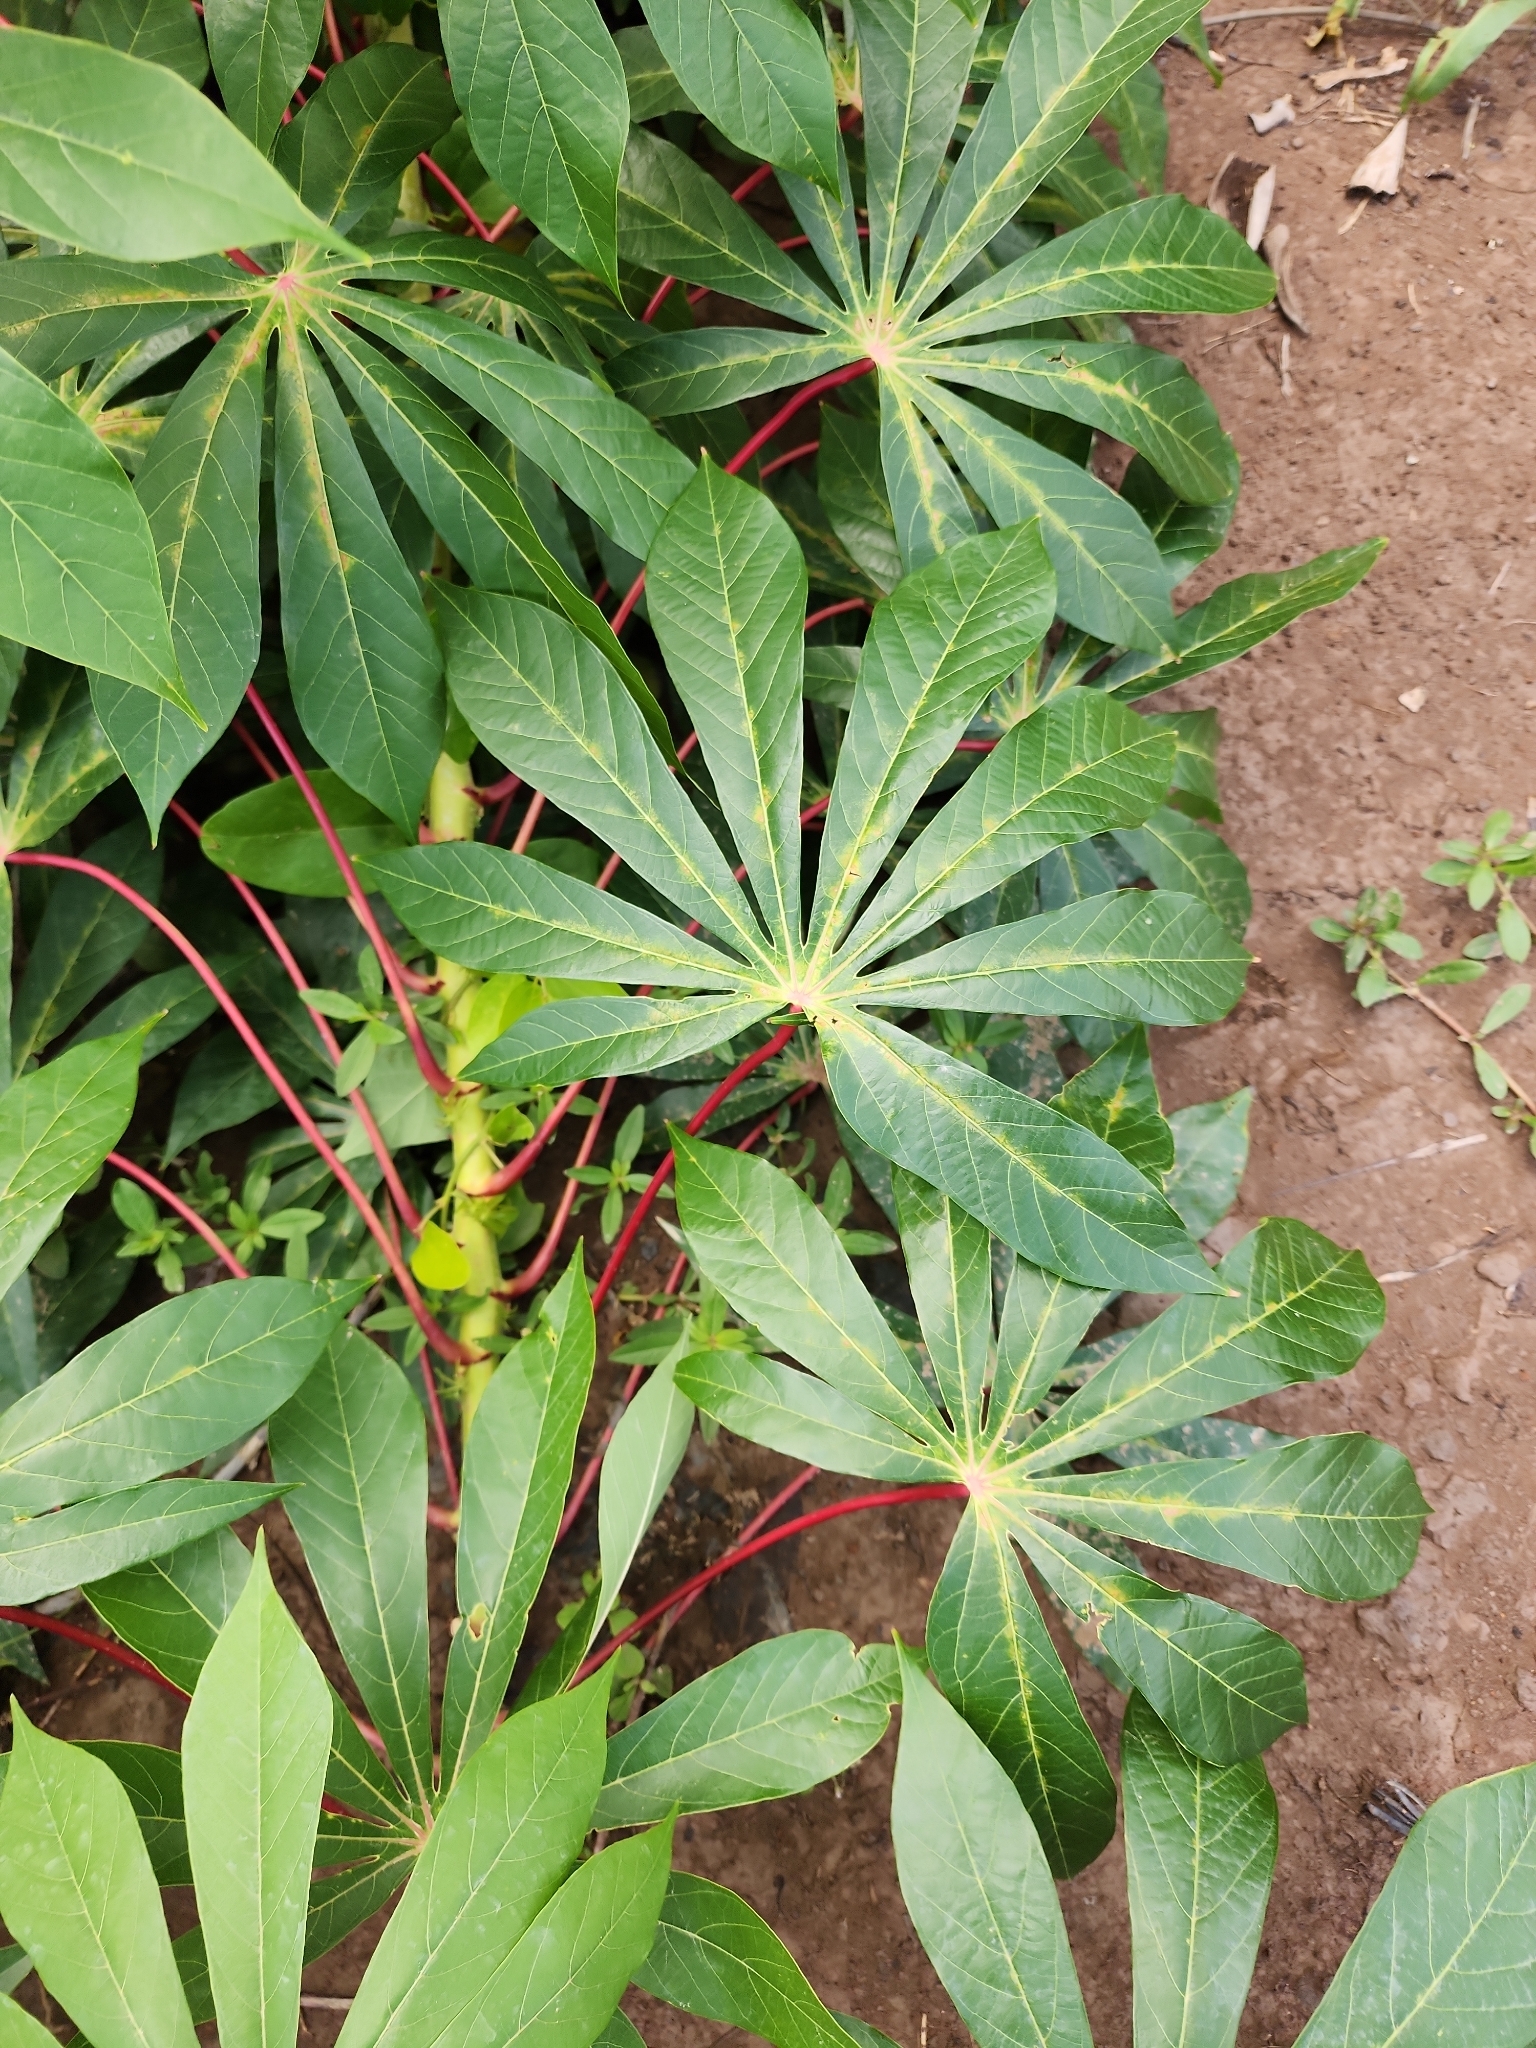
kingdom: Plantae
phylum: Tracheophyta
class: Magnoliopsida
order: Malpighiales
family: Euphorbiaceae
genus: Manihot
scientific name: Manihot esculenta
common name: Cassava
